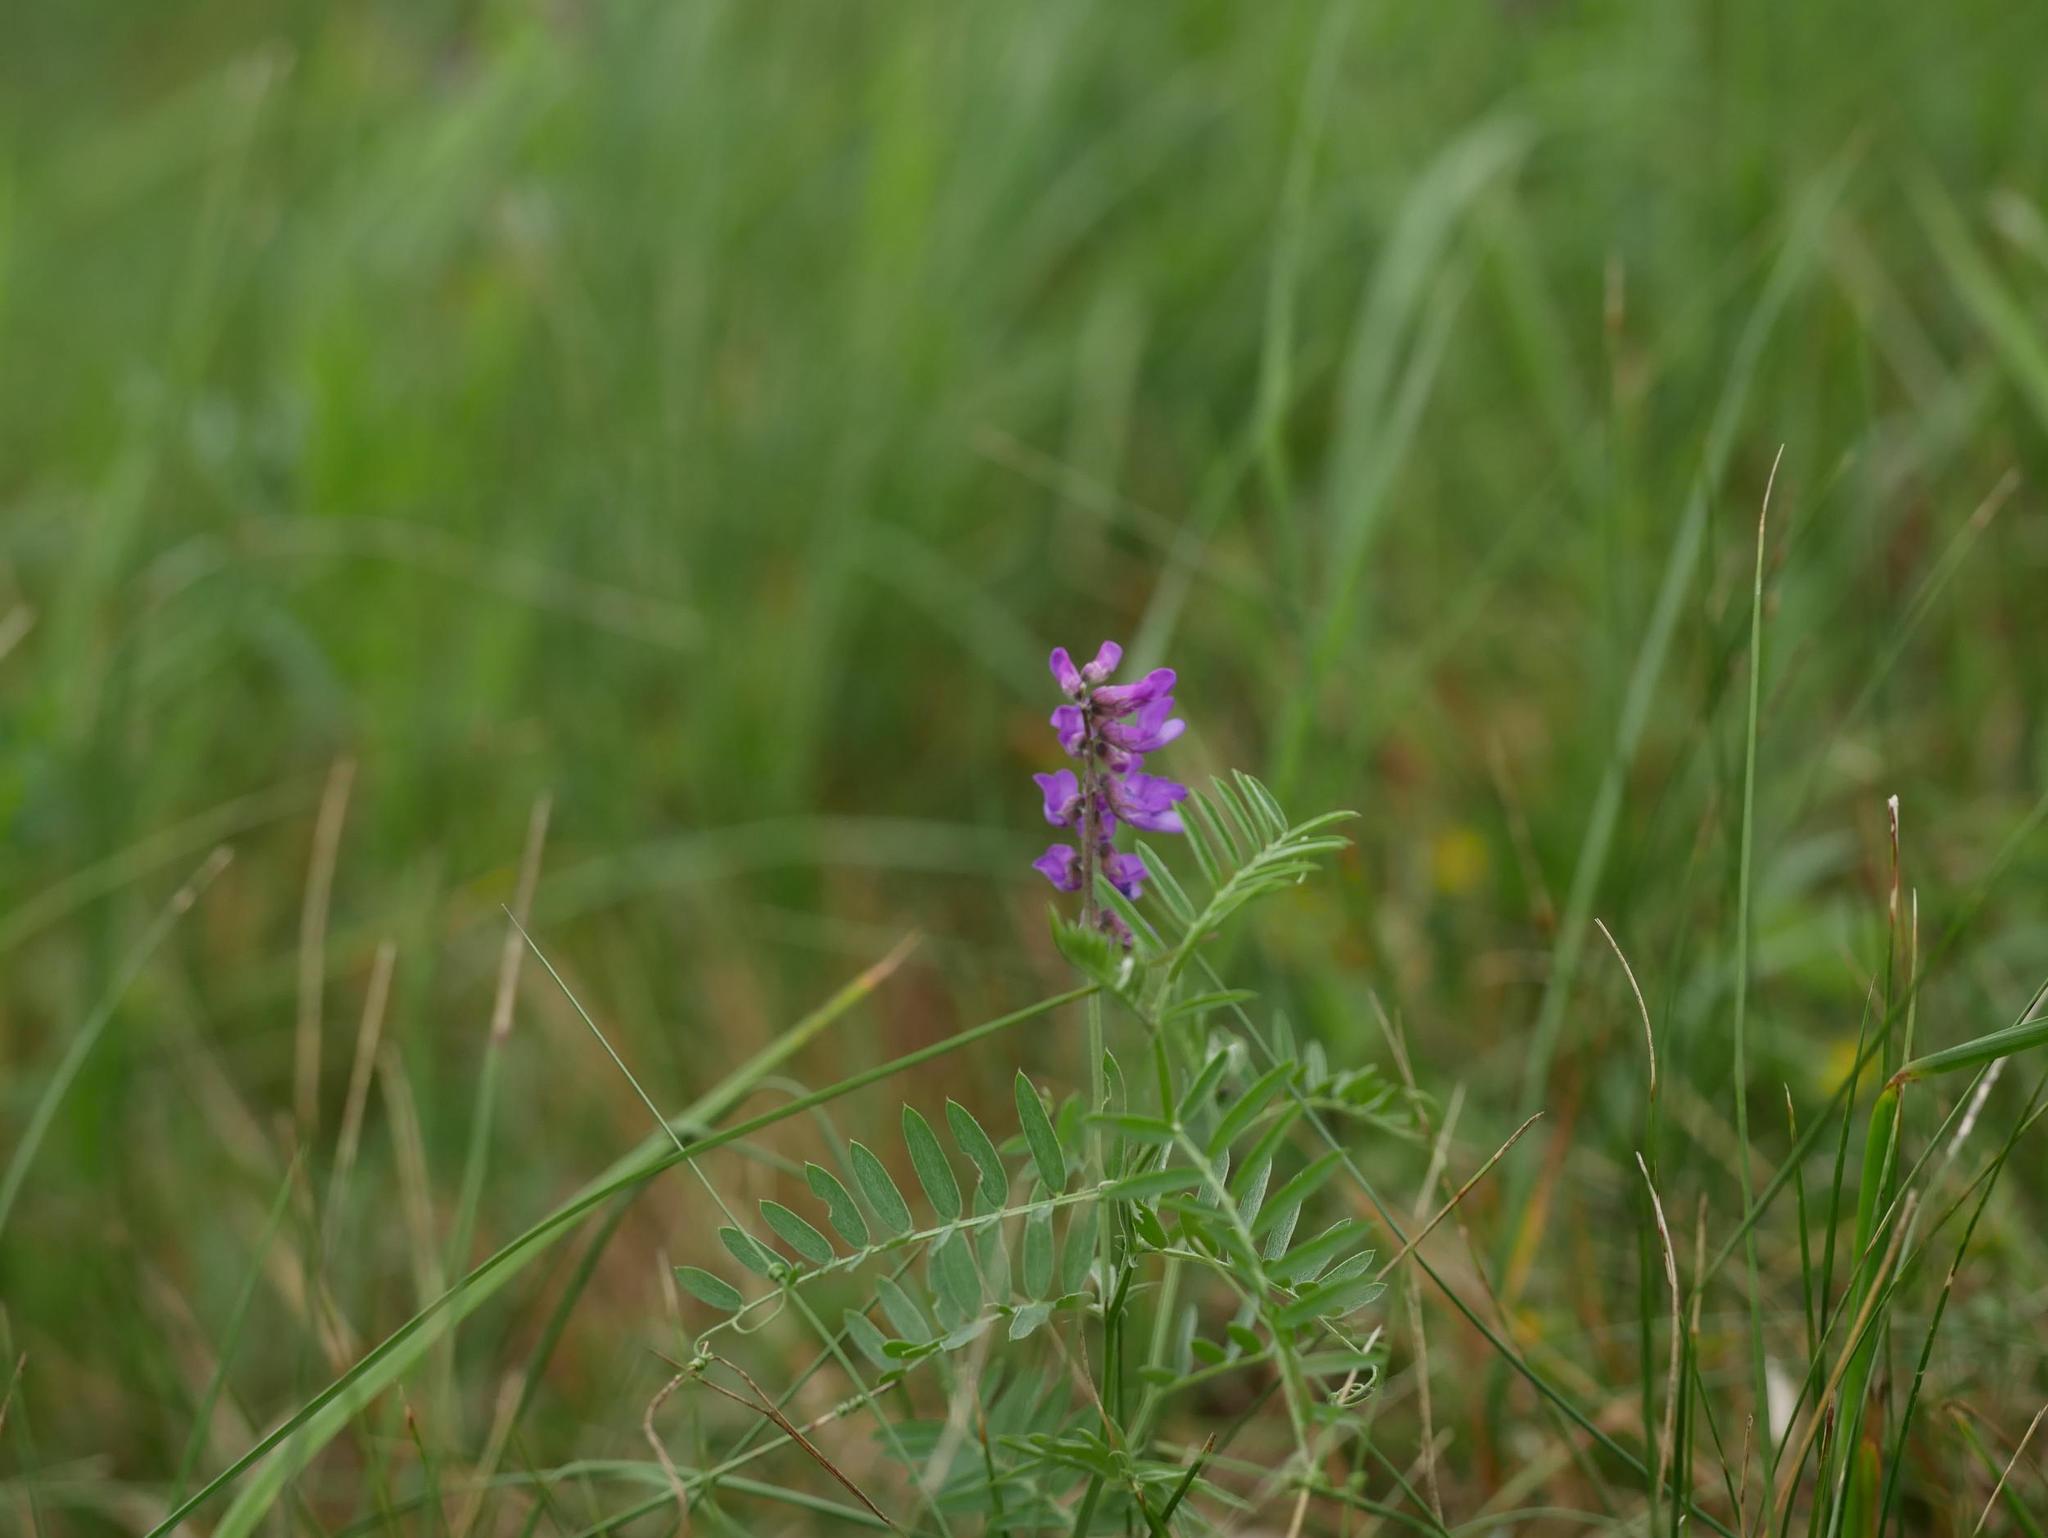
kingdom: Plantae
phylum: Tracheophyta
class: Magnoliopsida
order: Fabales
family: Fabaceae
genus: Vicia
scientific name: Vicia cracca
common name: Bird vetch
